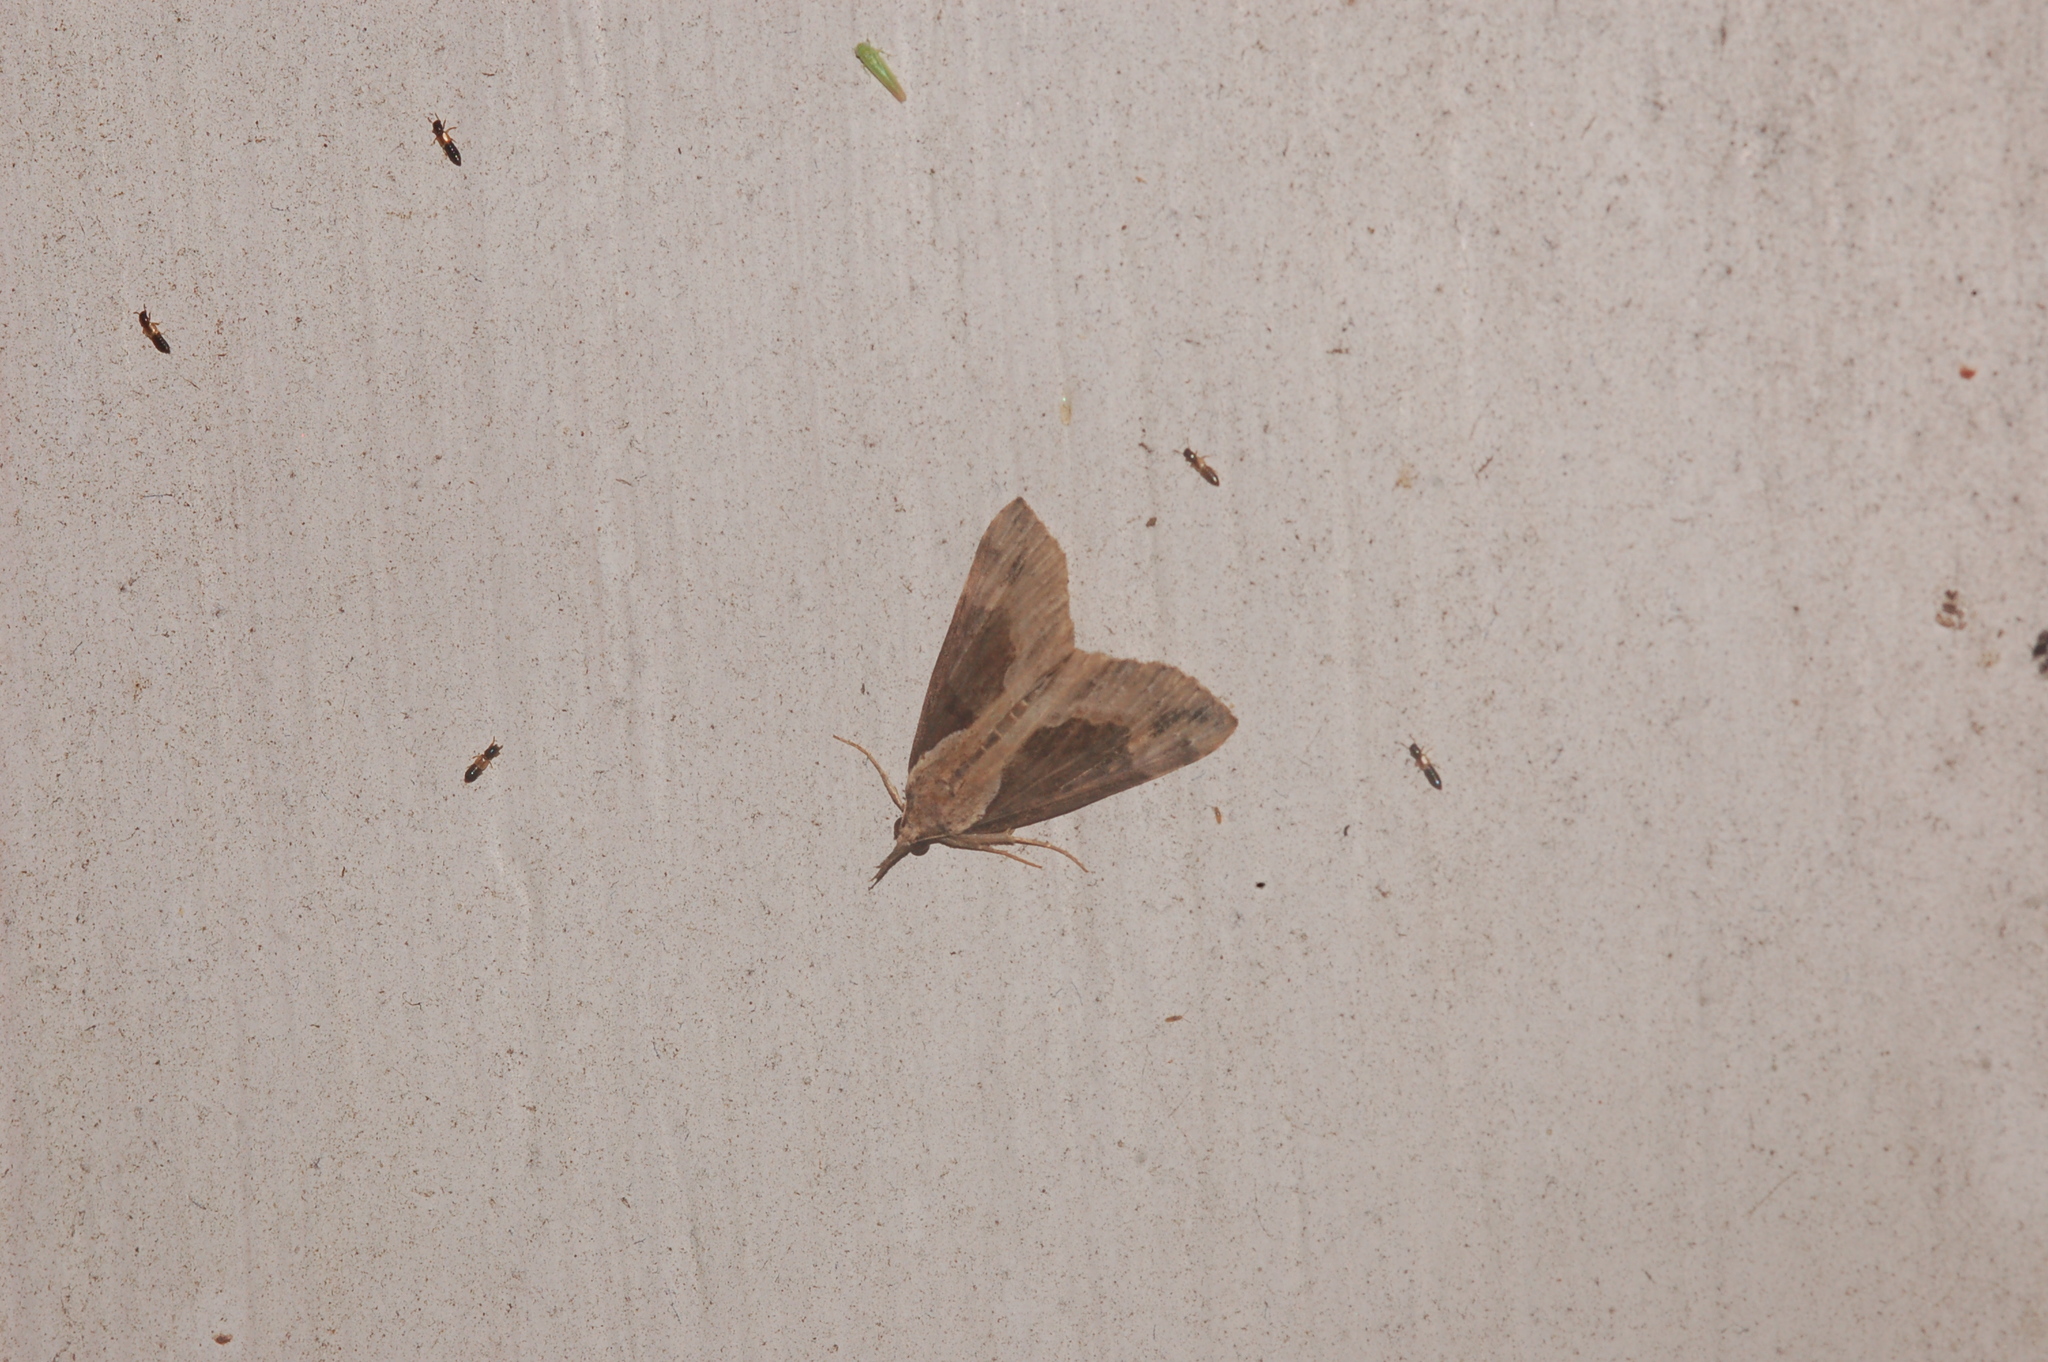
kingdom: Animalia
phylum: Arthropoda
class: Insecta
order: Lepidoptera
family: Erebidae
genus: Hypena
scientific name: Hypena baltimoralis
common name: Baltimore snout
